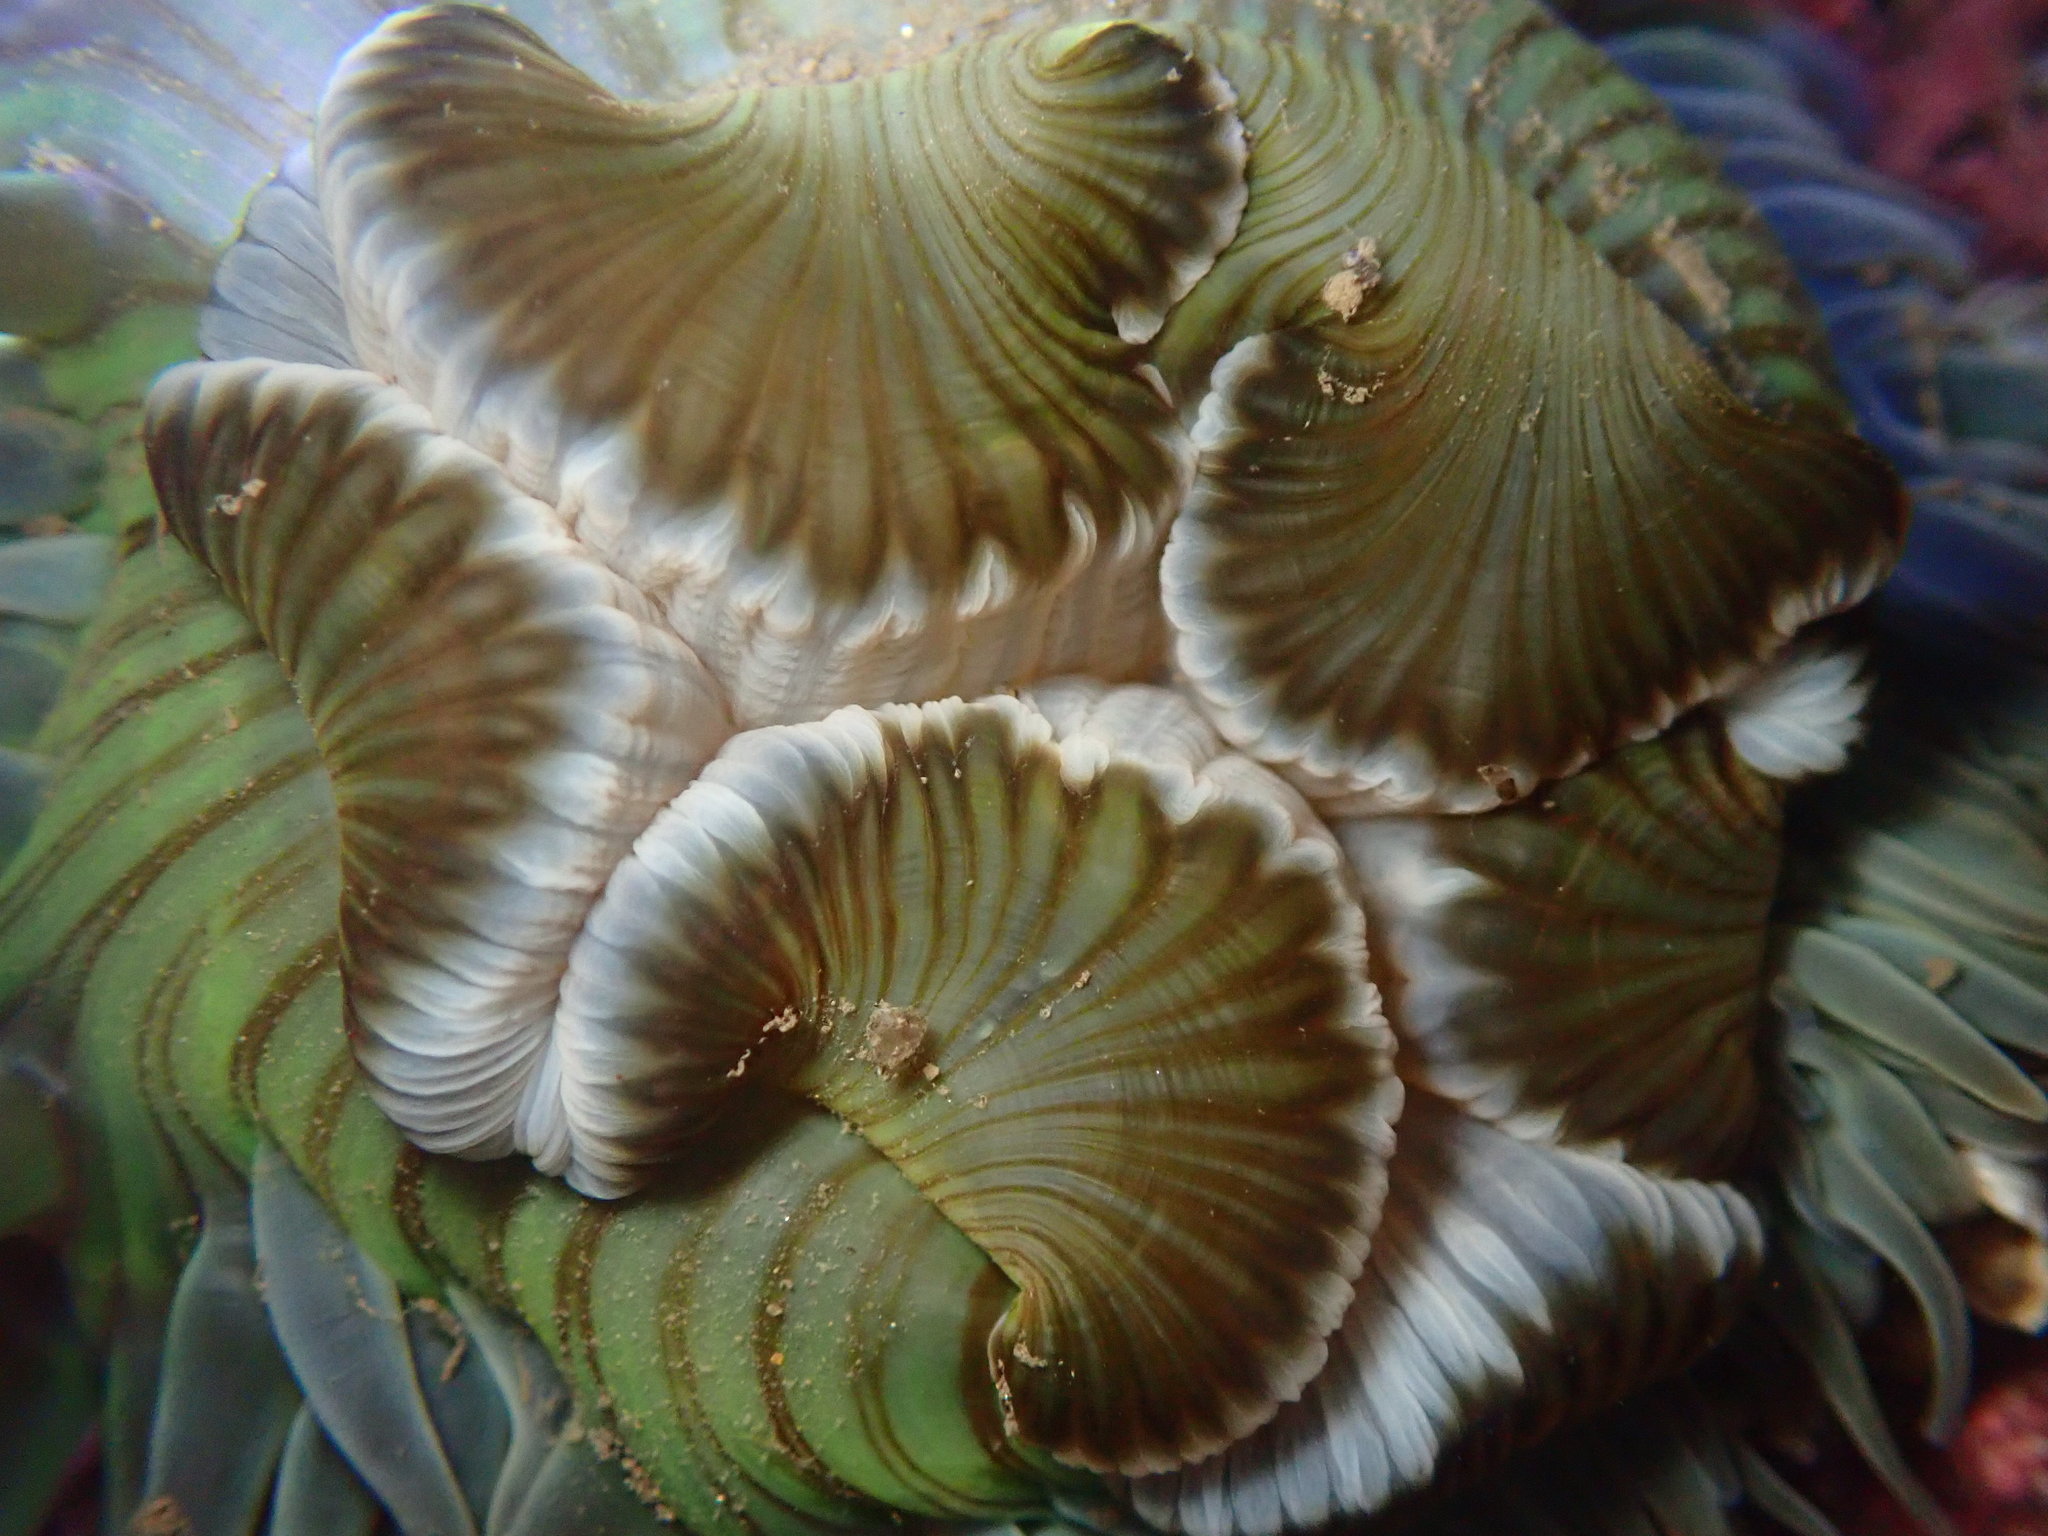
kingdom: Animalia
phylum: Cnidaria
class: Anthozoa
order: Actiniaria
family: Actiniidae
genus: Anthopleura
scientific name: Anthopleura sola
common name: Sun anemone
